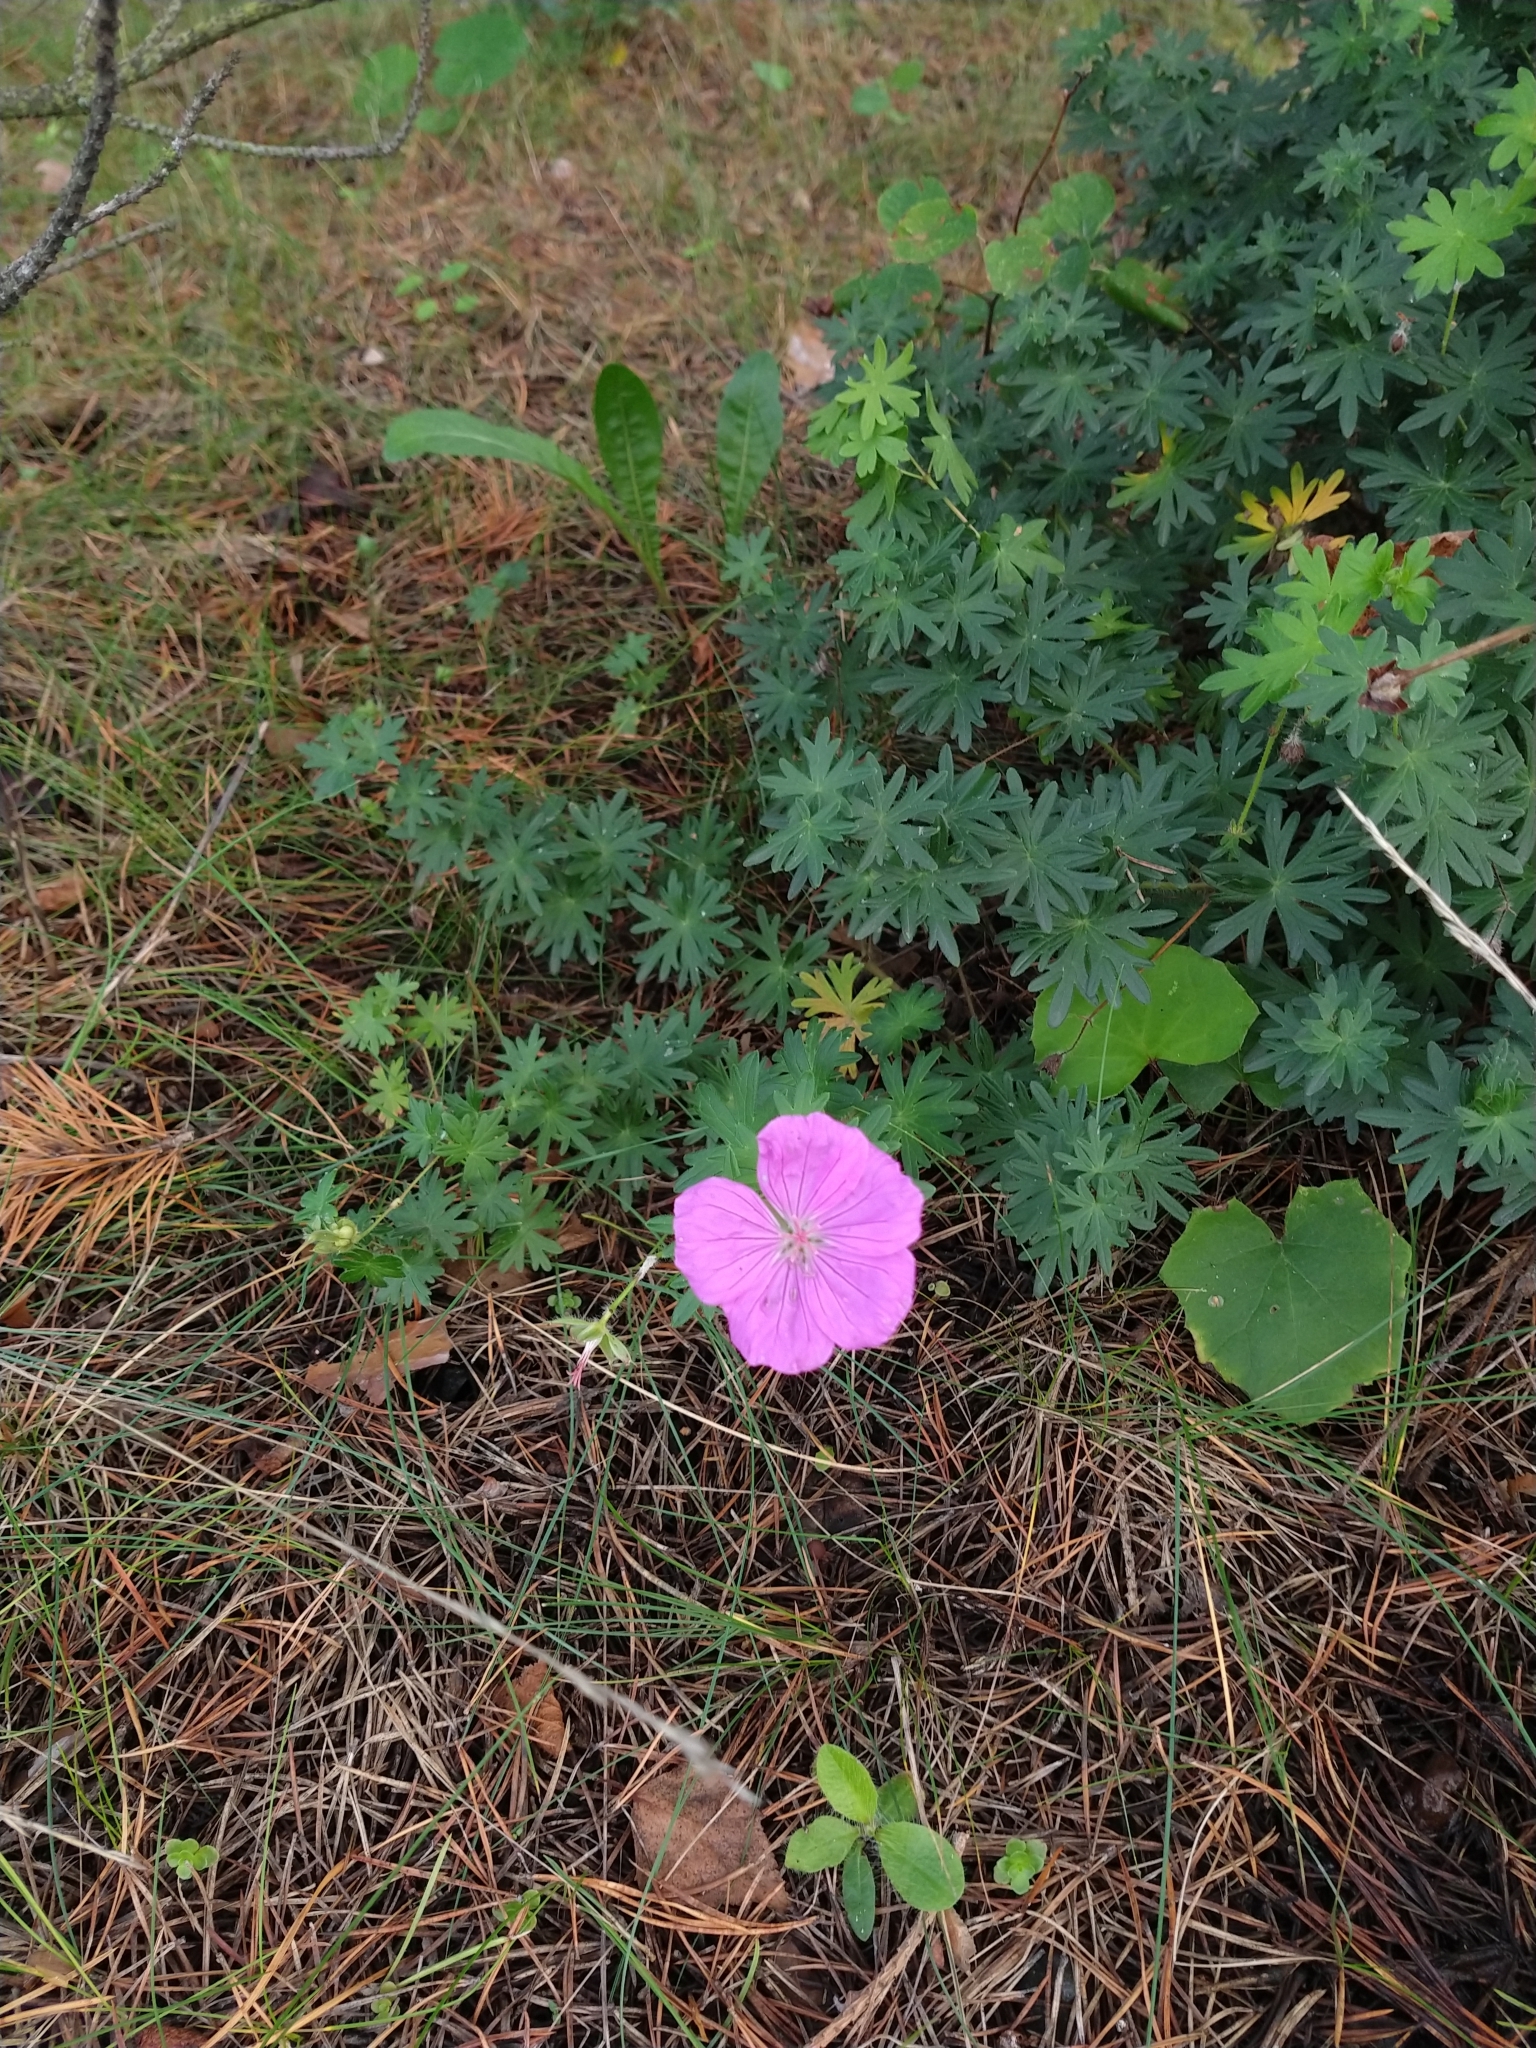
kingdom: Plantae
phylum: Tracheophyta
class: Magnoliopsida
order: Geraniales
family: Geraniaceae
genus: Geranium
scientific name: Geranium sanguineum
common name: Bloody crane's-bill
